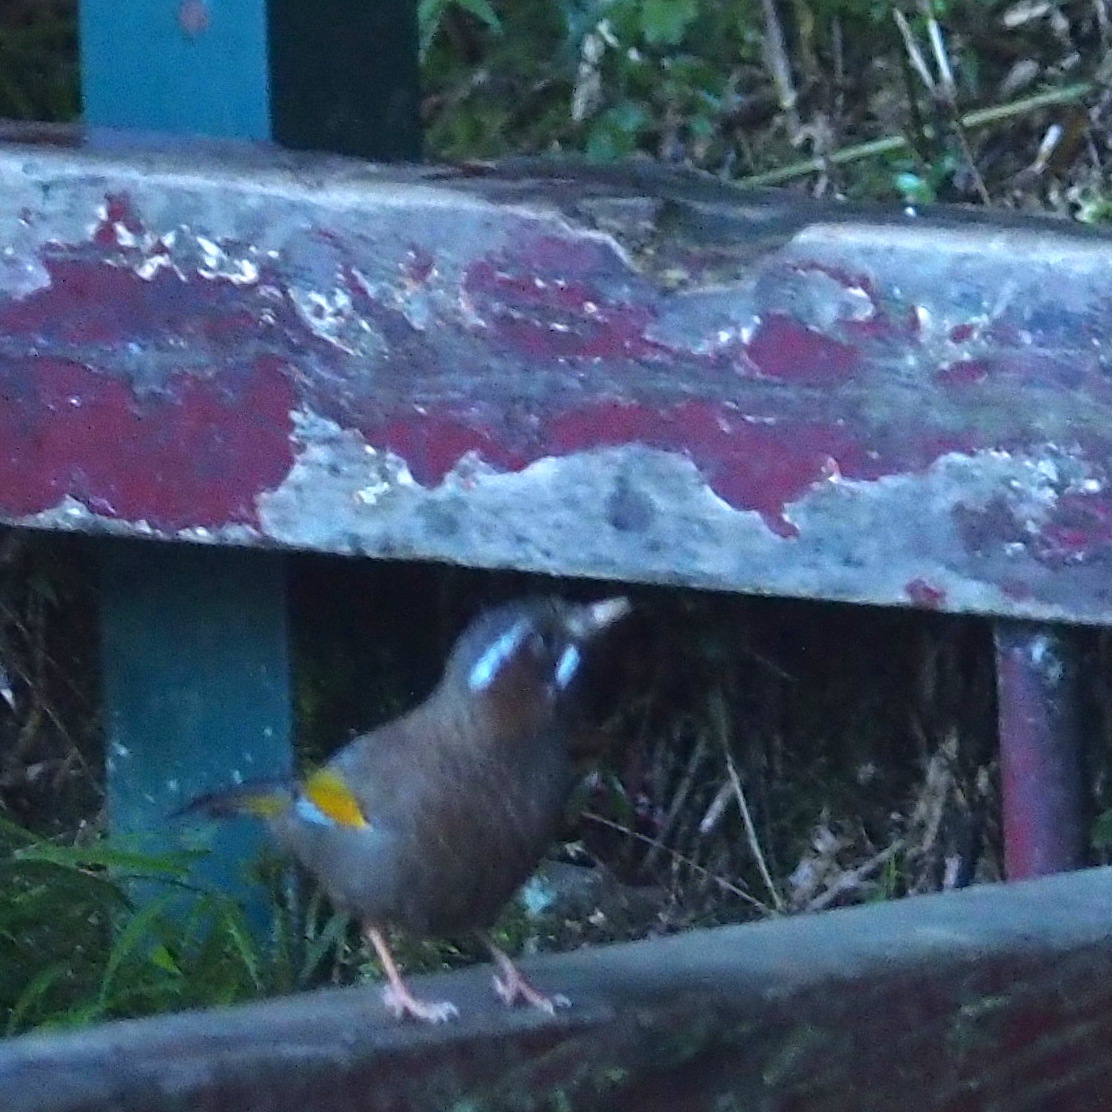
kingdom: Animalia
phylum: Chordata
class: Aves
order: Passeriformes
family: Leiothrichidae
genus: Trochalopteron
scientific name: Trochalopteron morrisonianum
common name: White-whiskered laughingthrush
